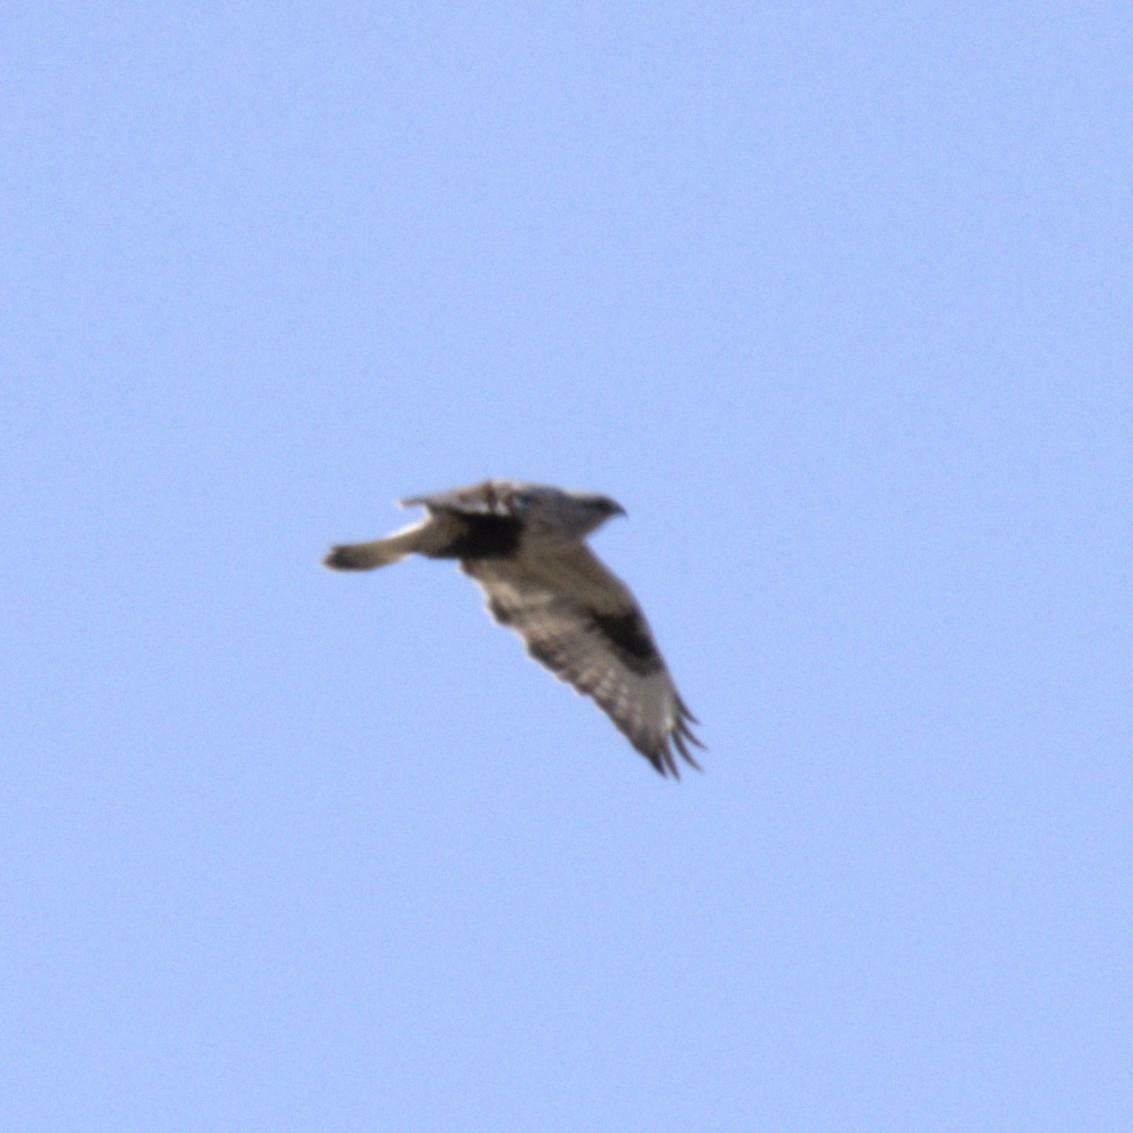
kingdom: Animalia
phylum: Chordata
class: Aves
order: Accipitriformes
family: Accipitridae
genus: Buteo
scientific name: Buteo lagopus
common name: Rough-legged buzzard
